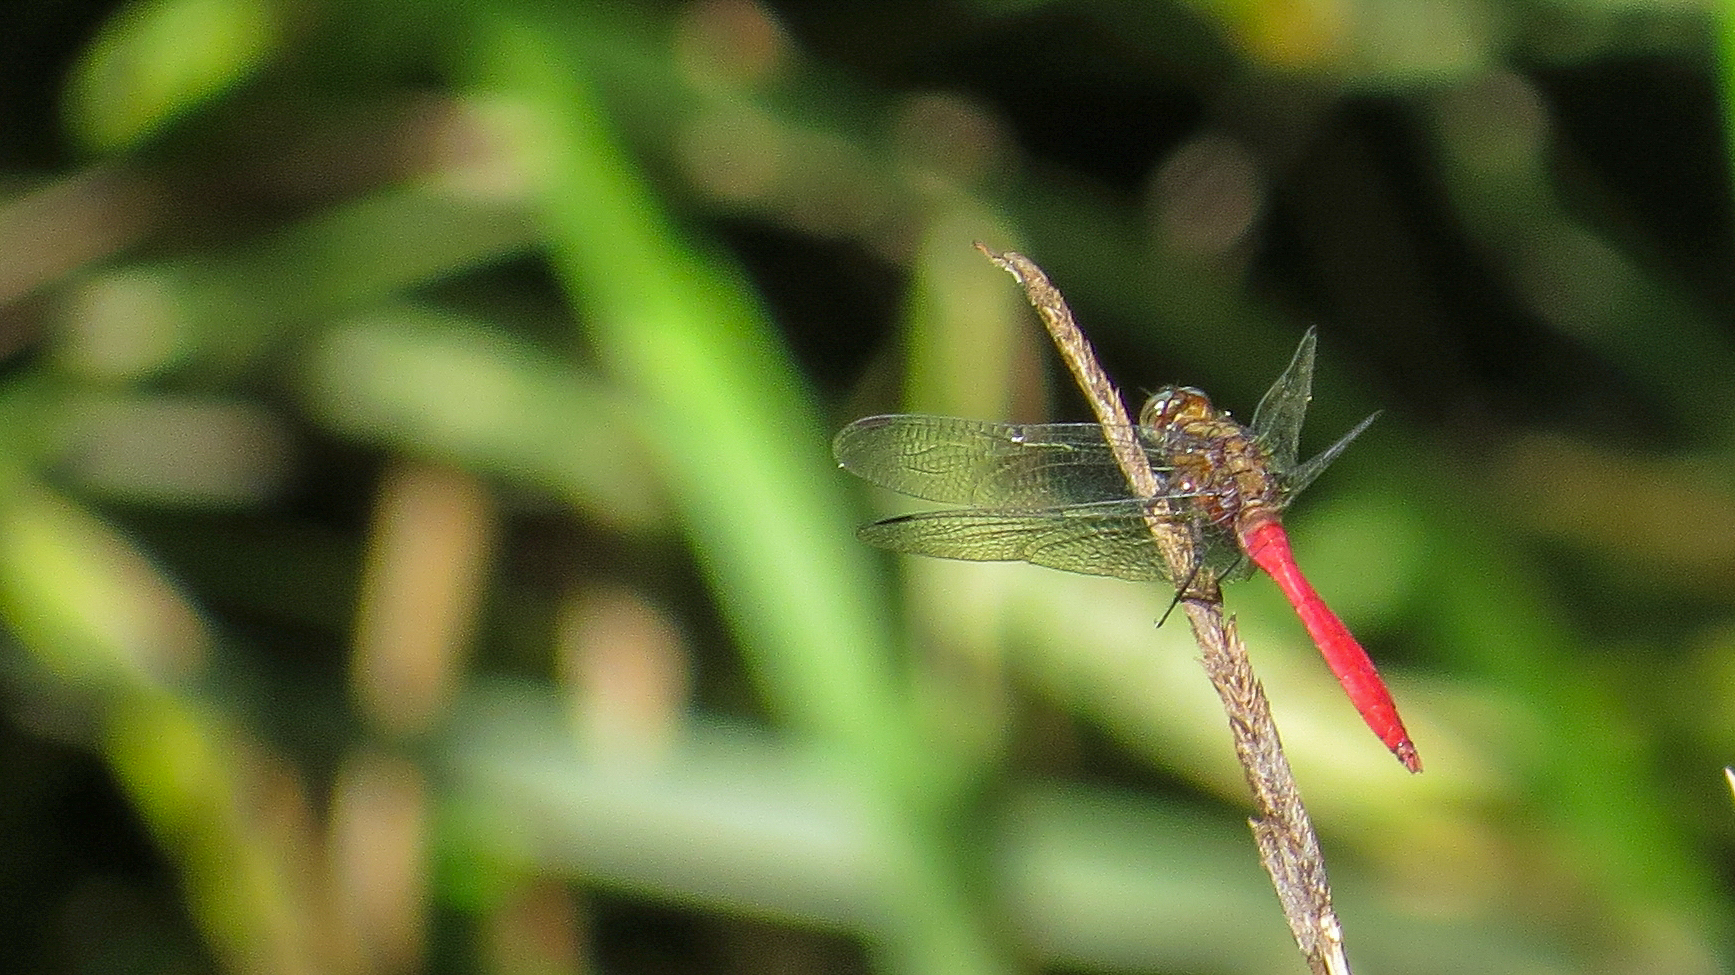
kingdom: Animalia
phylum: Arthropoda
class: Insecta
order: Odonata
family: Libellulidae
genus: Orthetrum
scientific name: Orthetrum villosovittatum
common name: Firery skimmer
